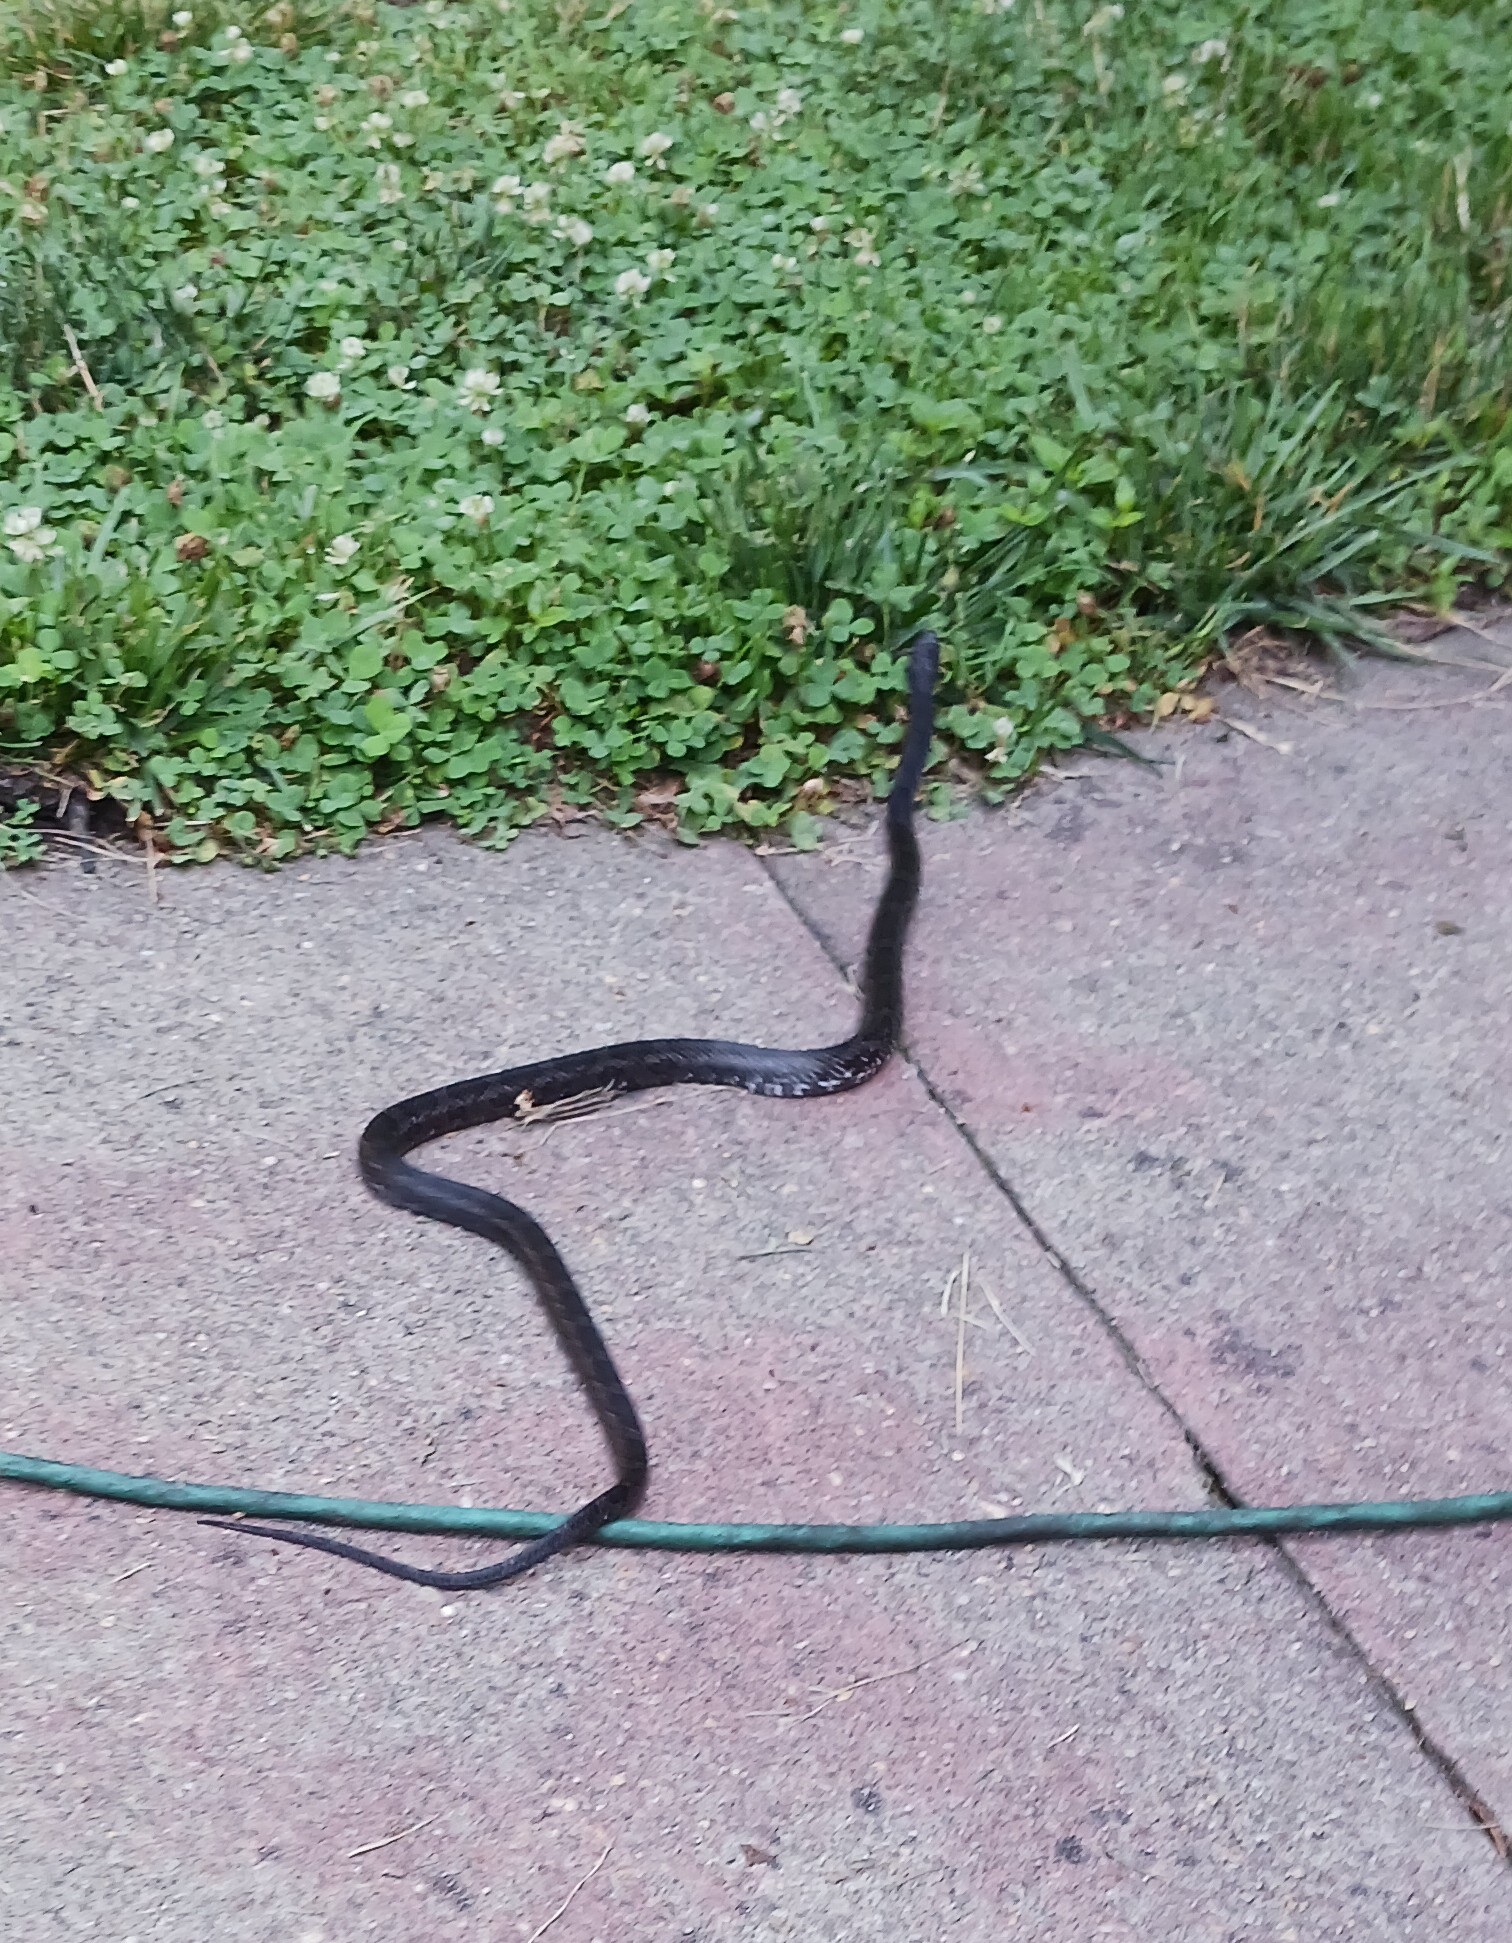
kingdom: Animalia
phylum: Chordata
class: Squamata
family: Colubridae
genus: Pantherophis
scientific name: Pantherophis
